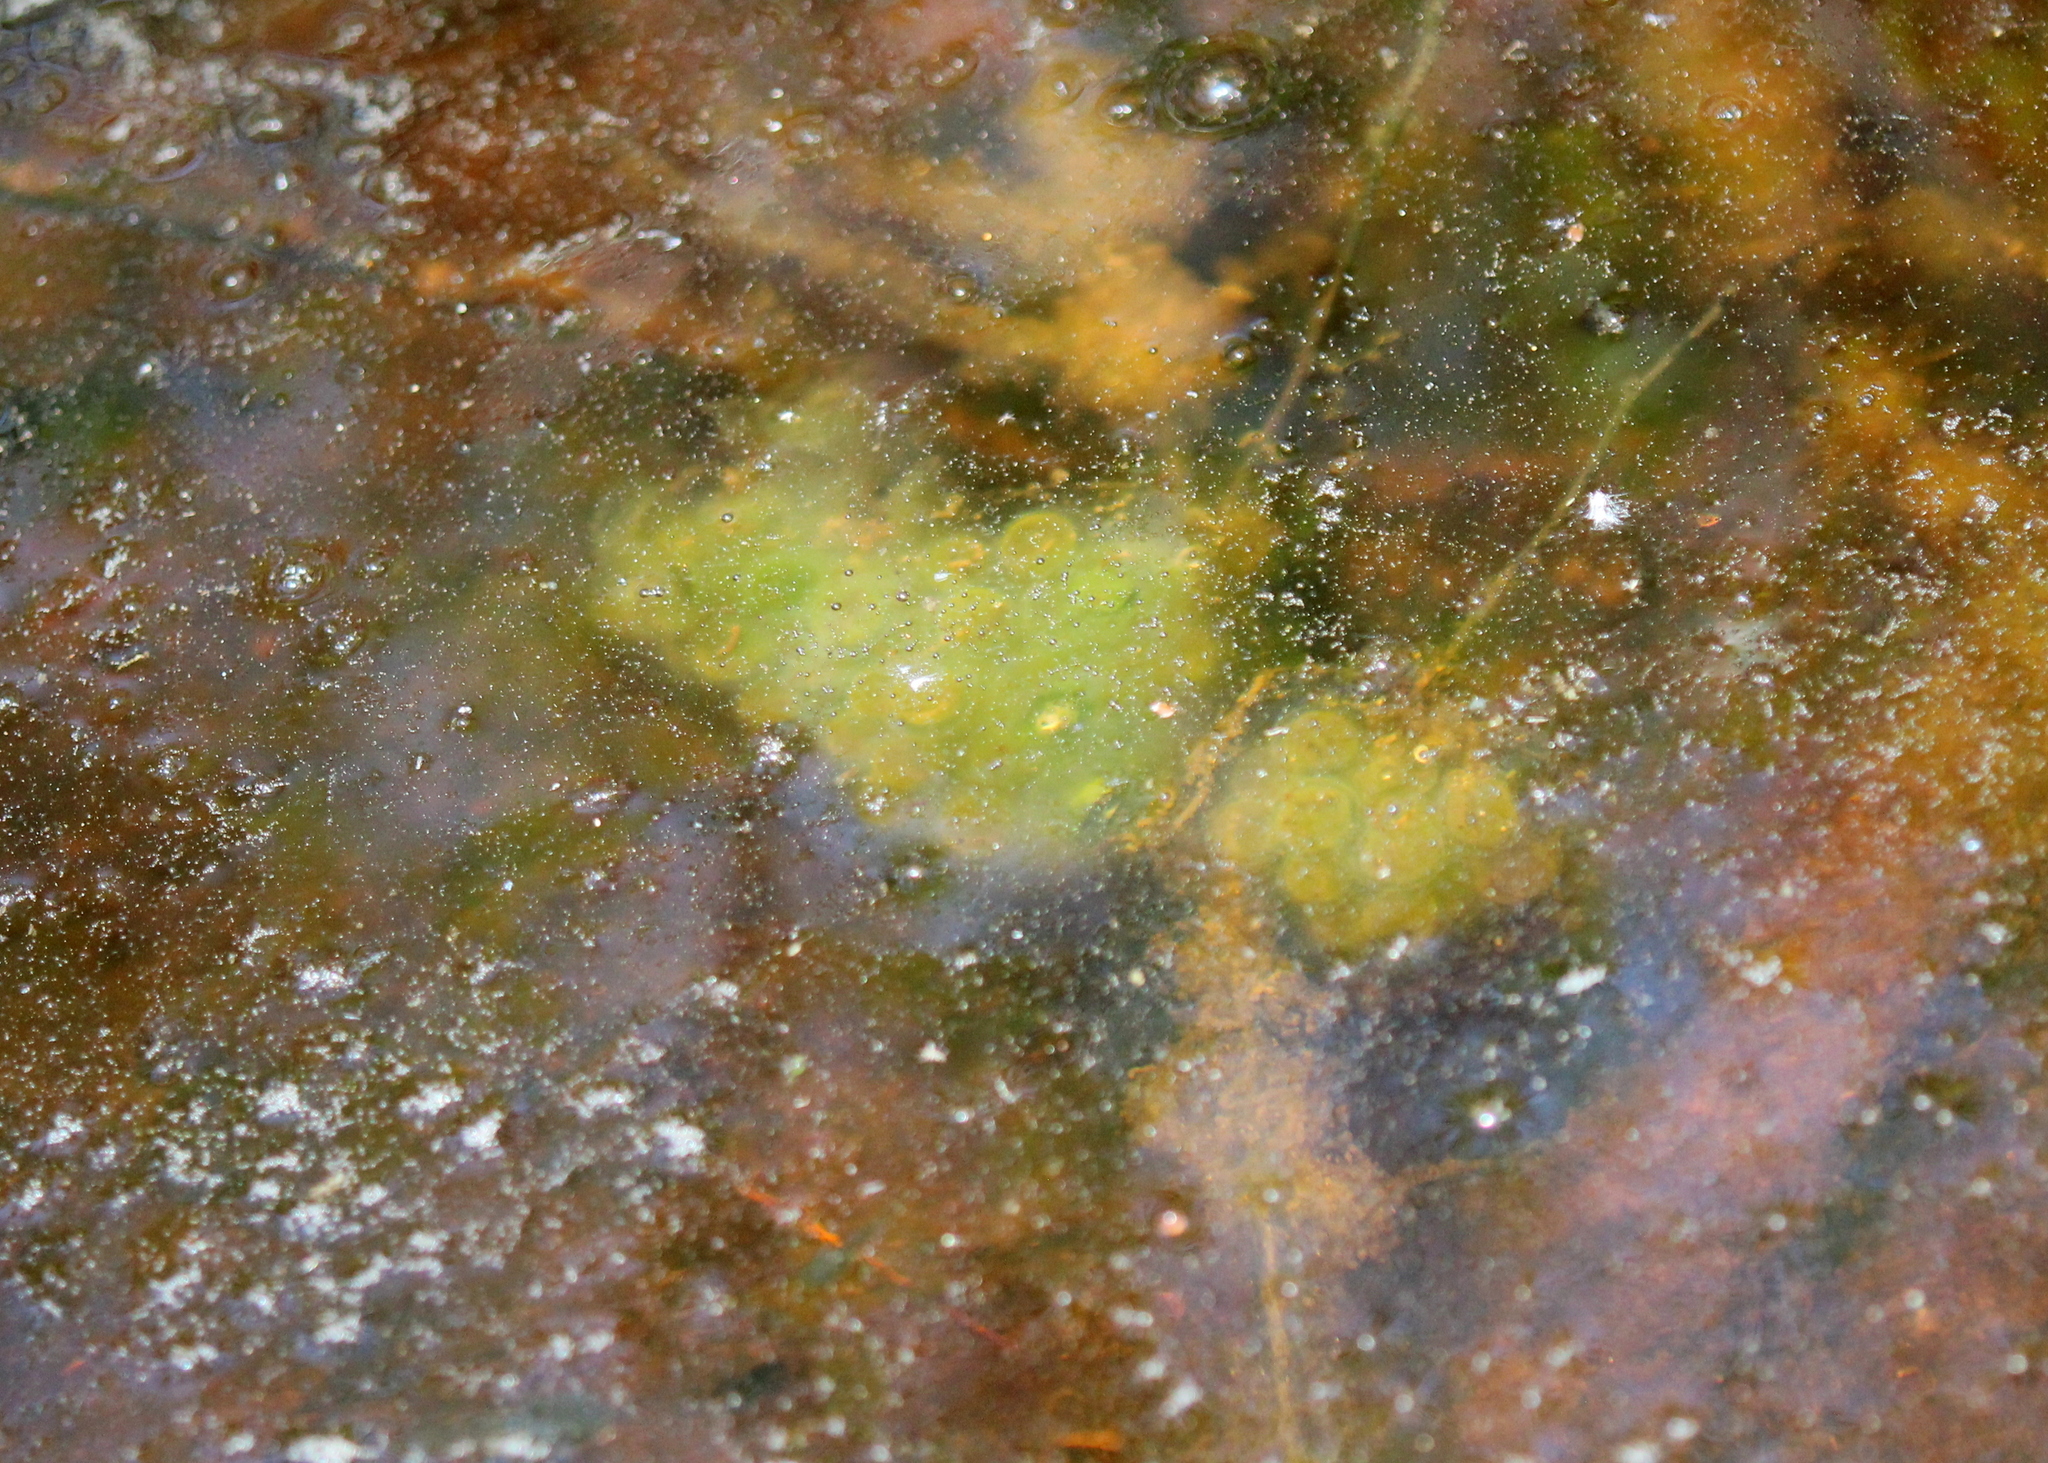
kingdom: Animalia
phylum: Chordata
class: Amphibia
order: Caudata
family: Ambystomatidae
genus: Ambystoma
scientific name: Ambystoma maculatum
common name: Spotted salamander
